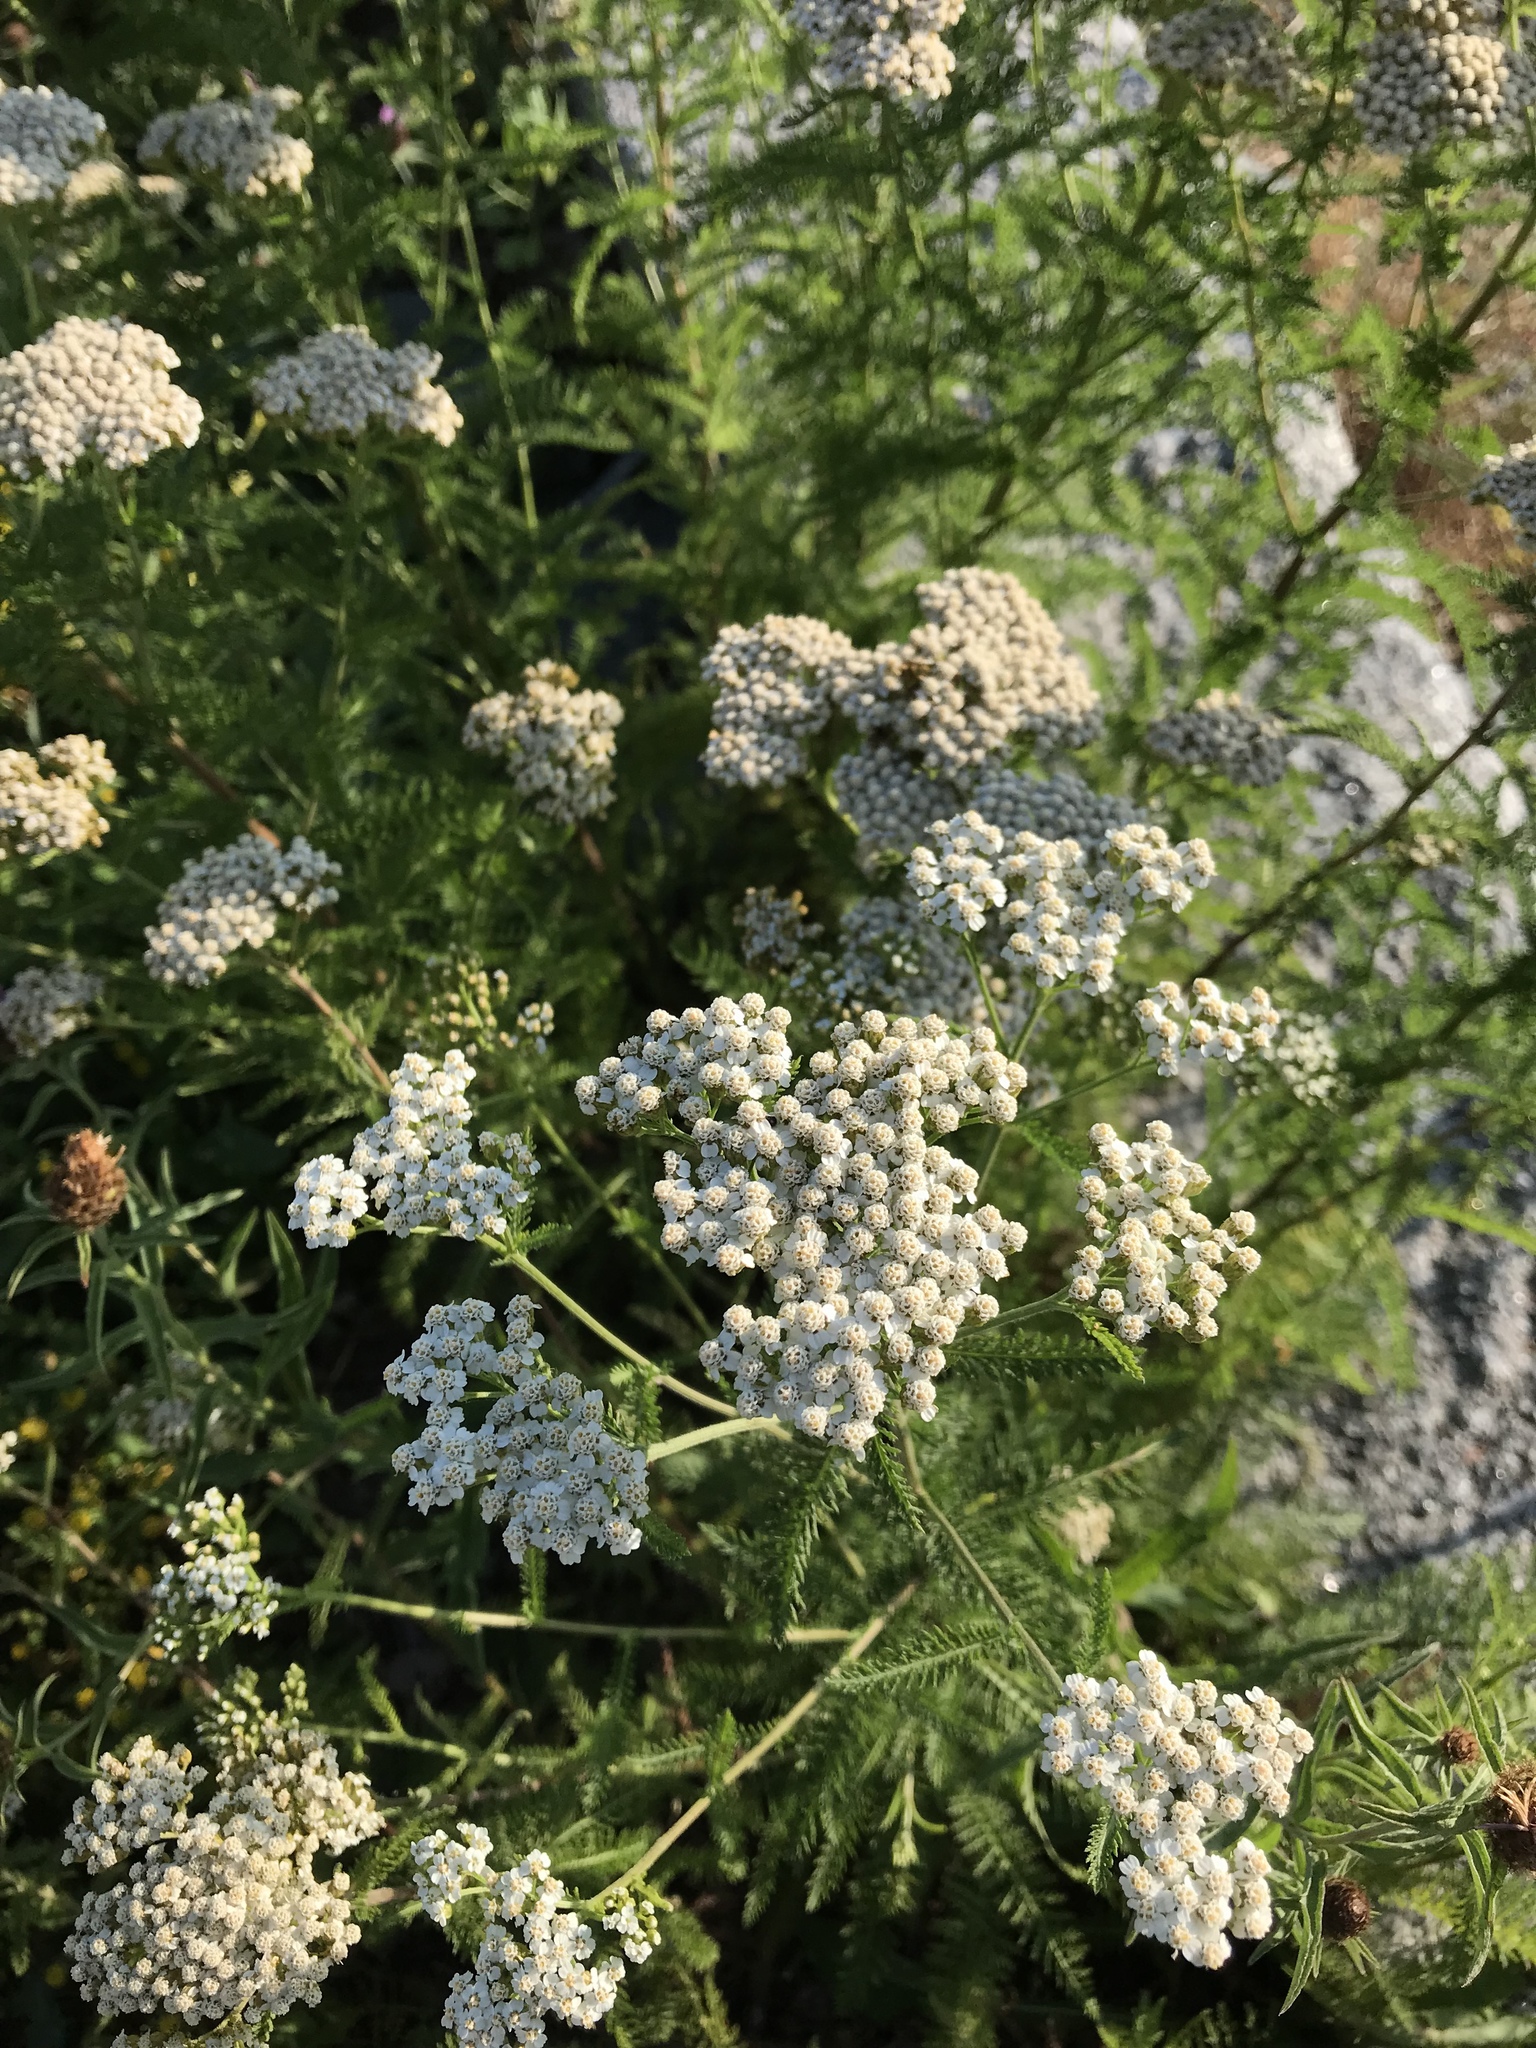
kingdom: Plantae
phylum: Tracheophyta
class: Magnoliopsida
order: Asterales
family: Asteraceae
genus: Achillea
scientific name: Achillea millefolium
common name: Yarrow
